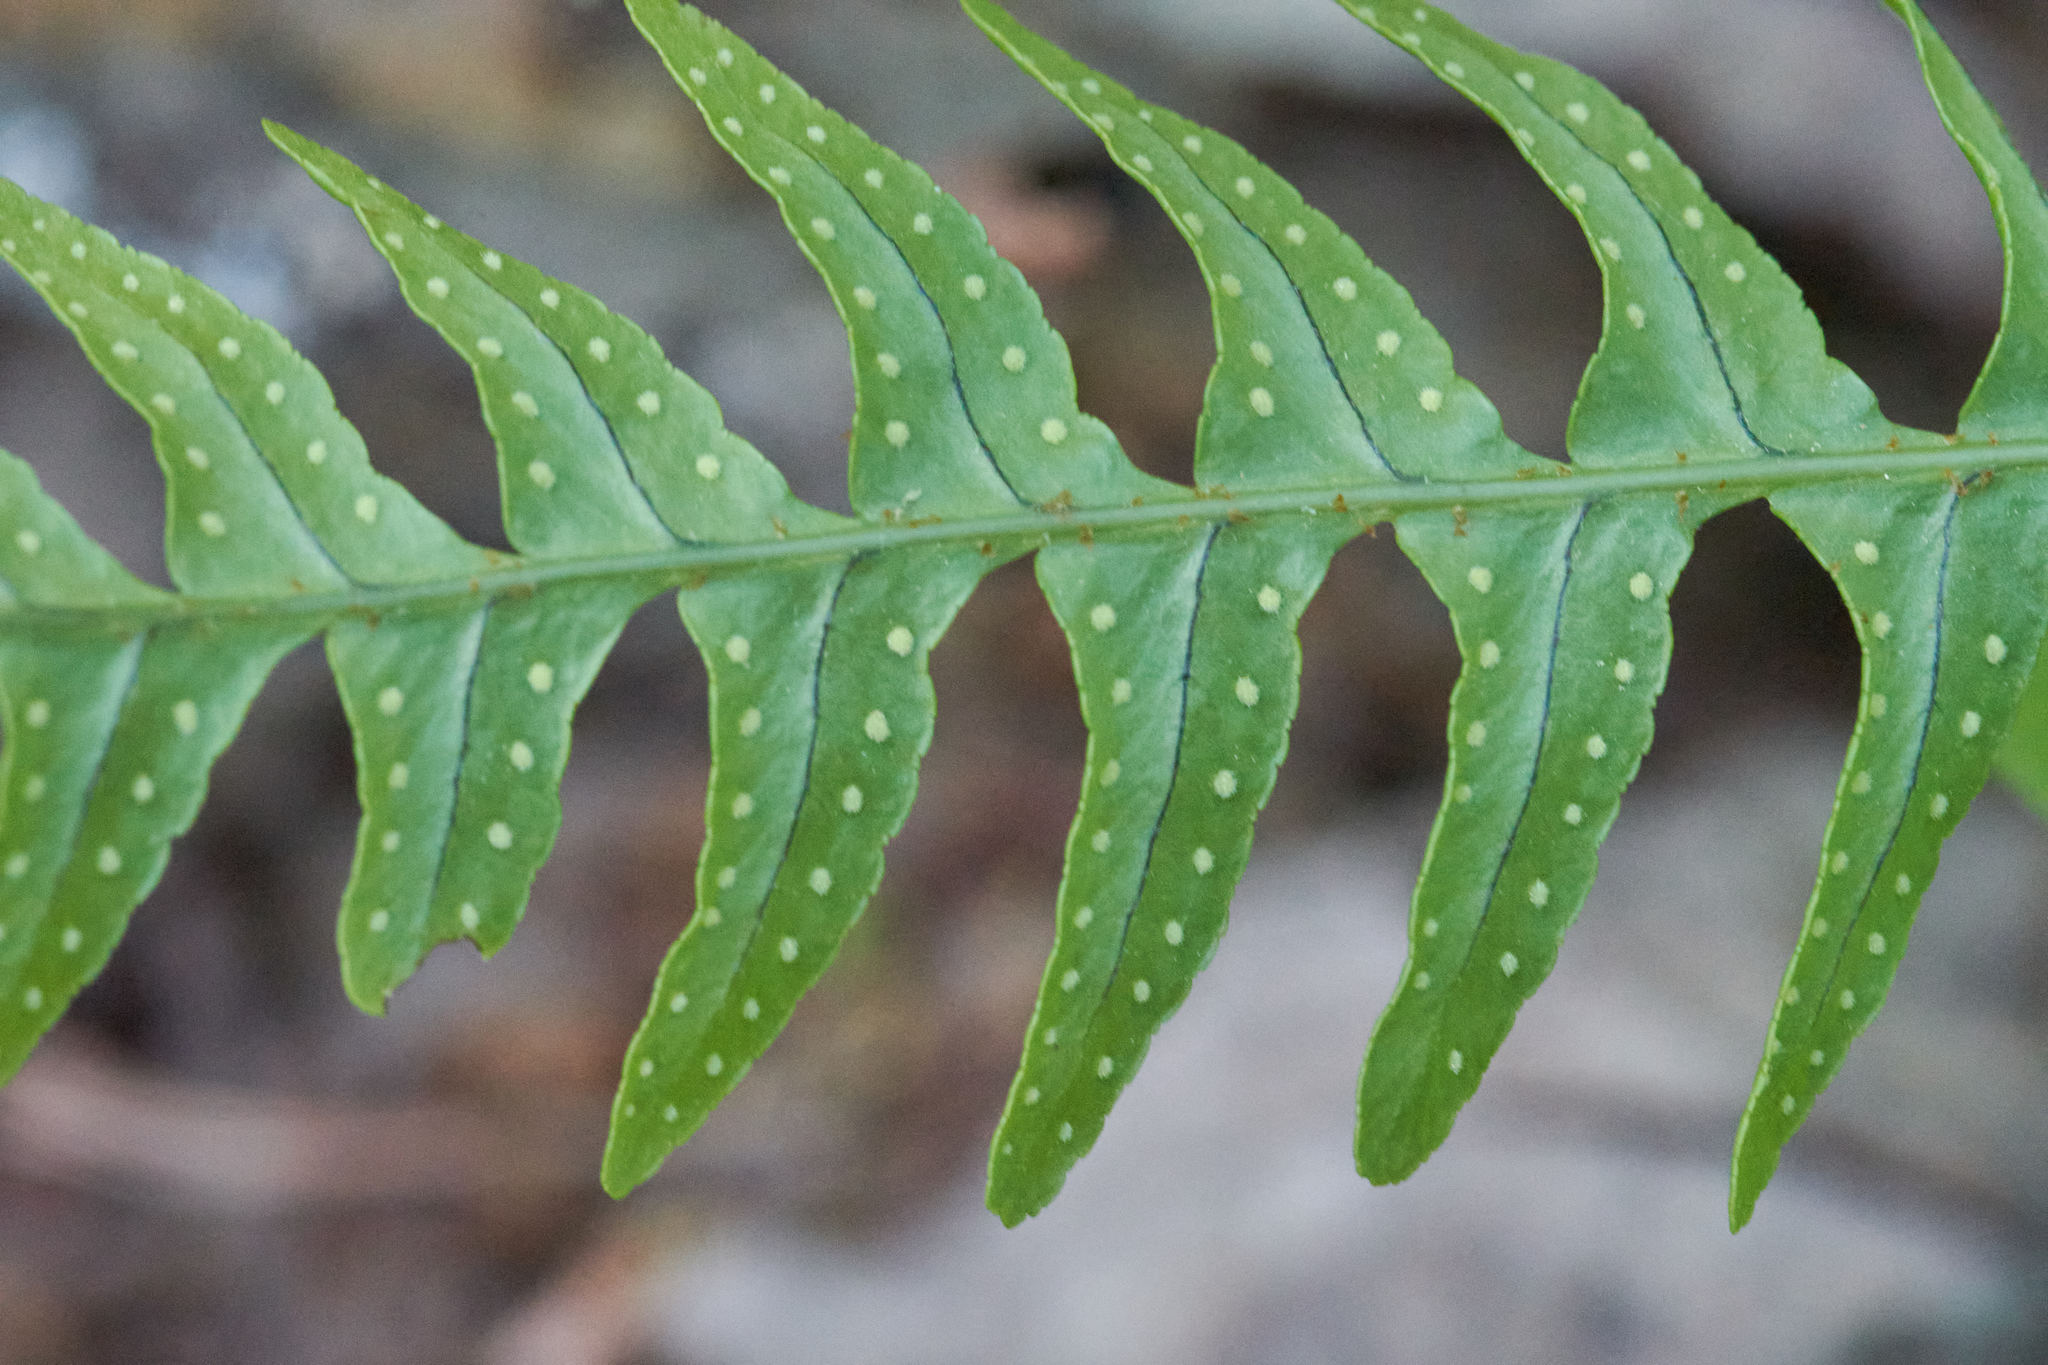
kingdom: Plantae
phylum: Tracheophyta
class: Polypodiopsida
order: Polypodiales
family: Polypodiaceae
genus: Polypodium
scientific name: Polypodium virginianum
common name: American wall fern
